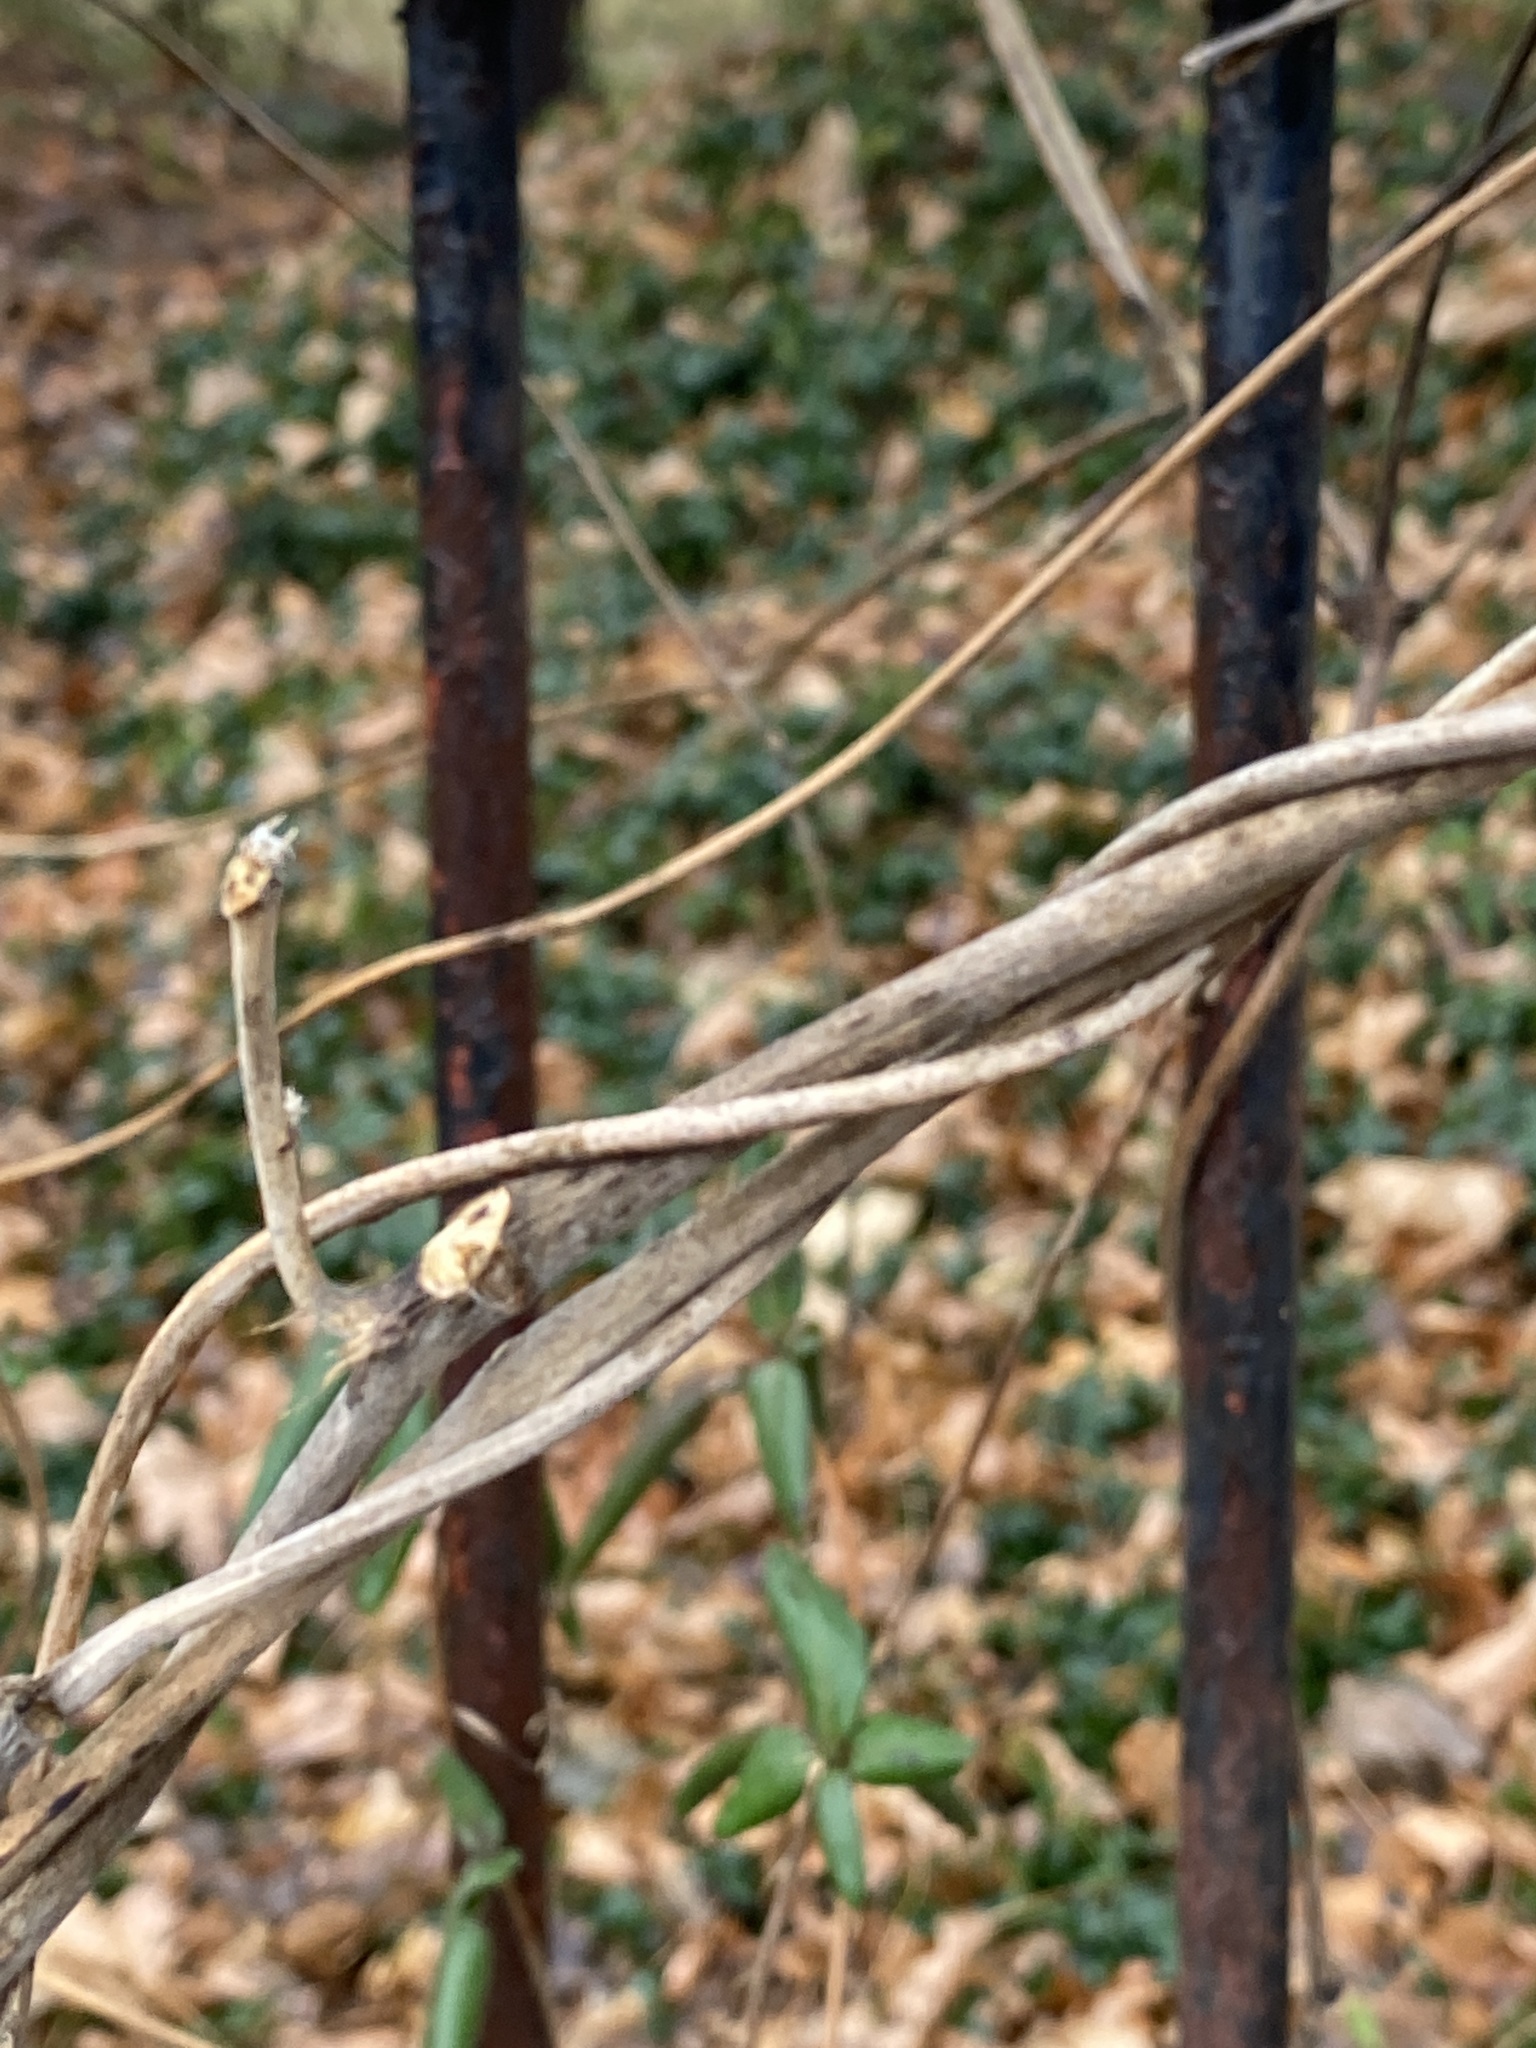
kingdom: Plantae
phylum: Tracheophyta
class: Magnoliopsida
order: Fabales
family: Fabaceae
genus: Pueraria
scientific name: Pueraria montana
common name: Kudzu
